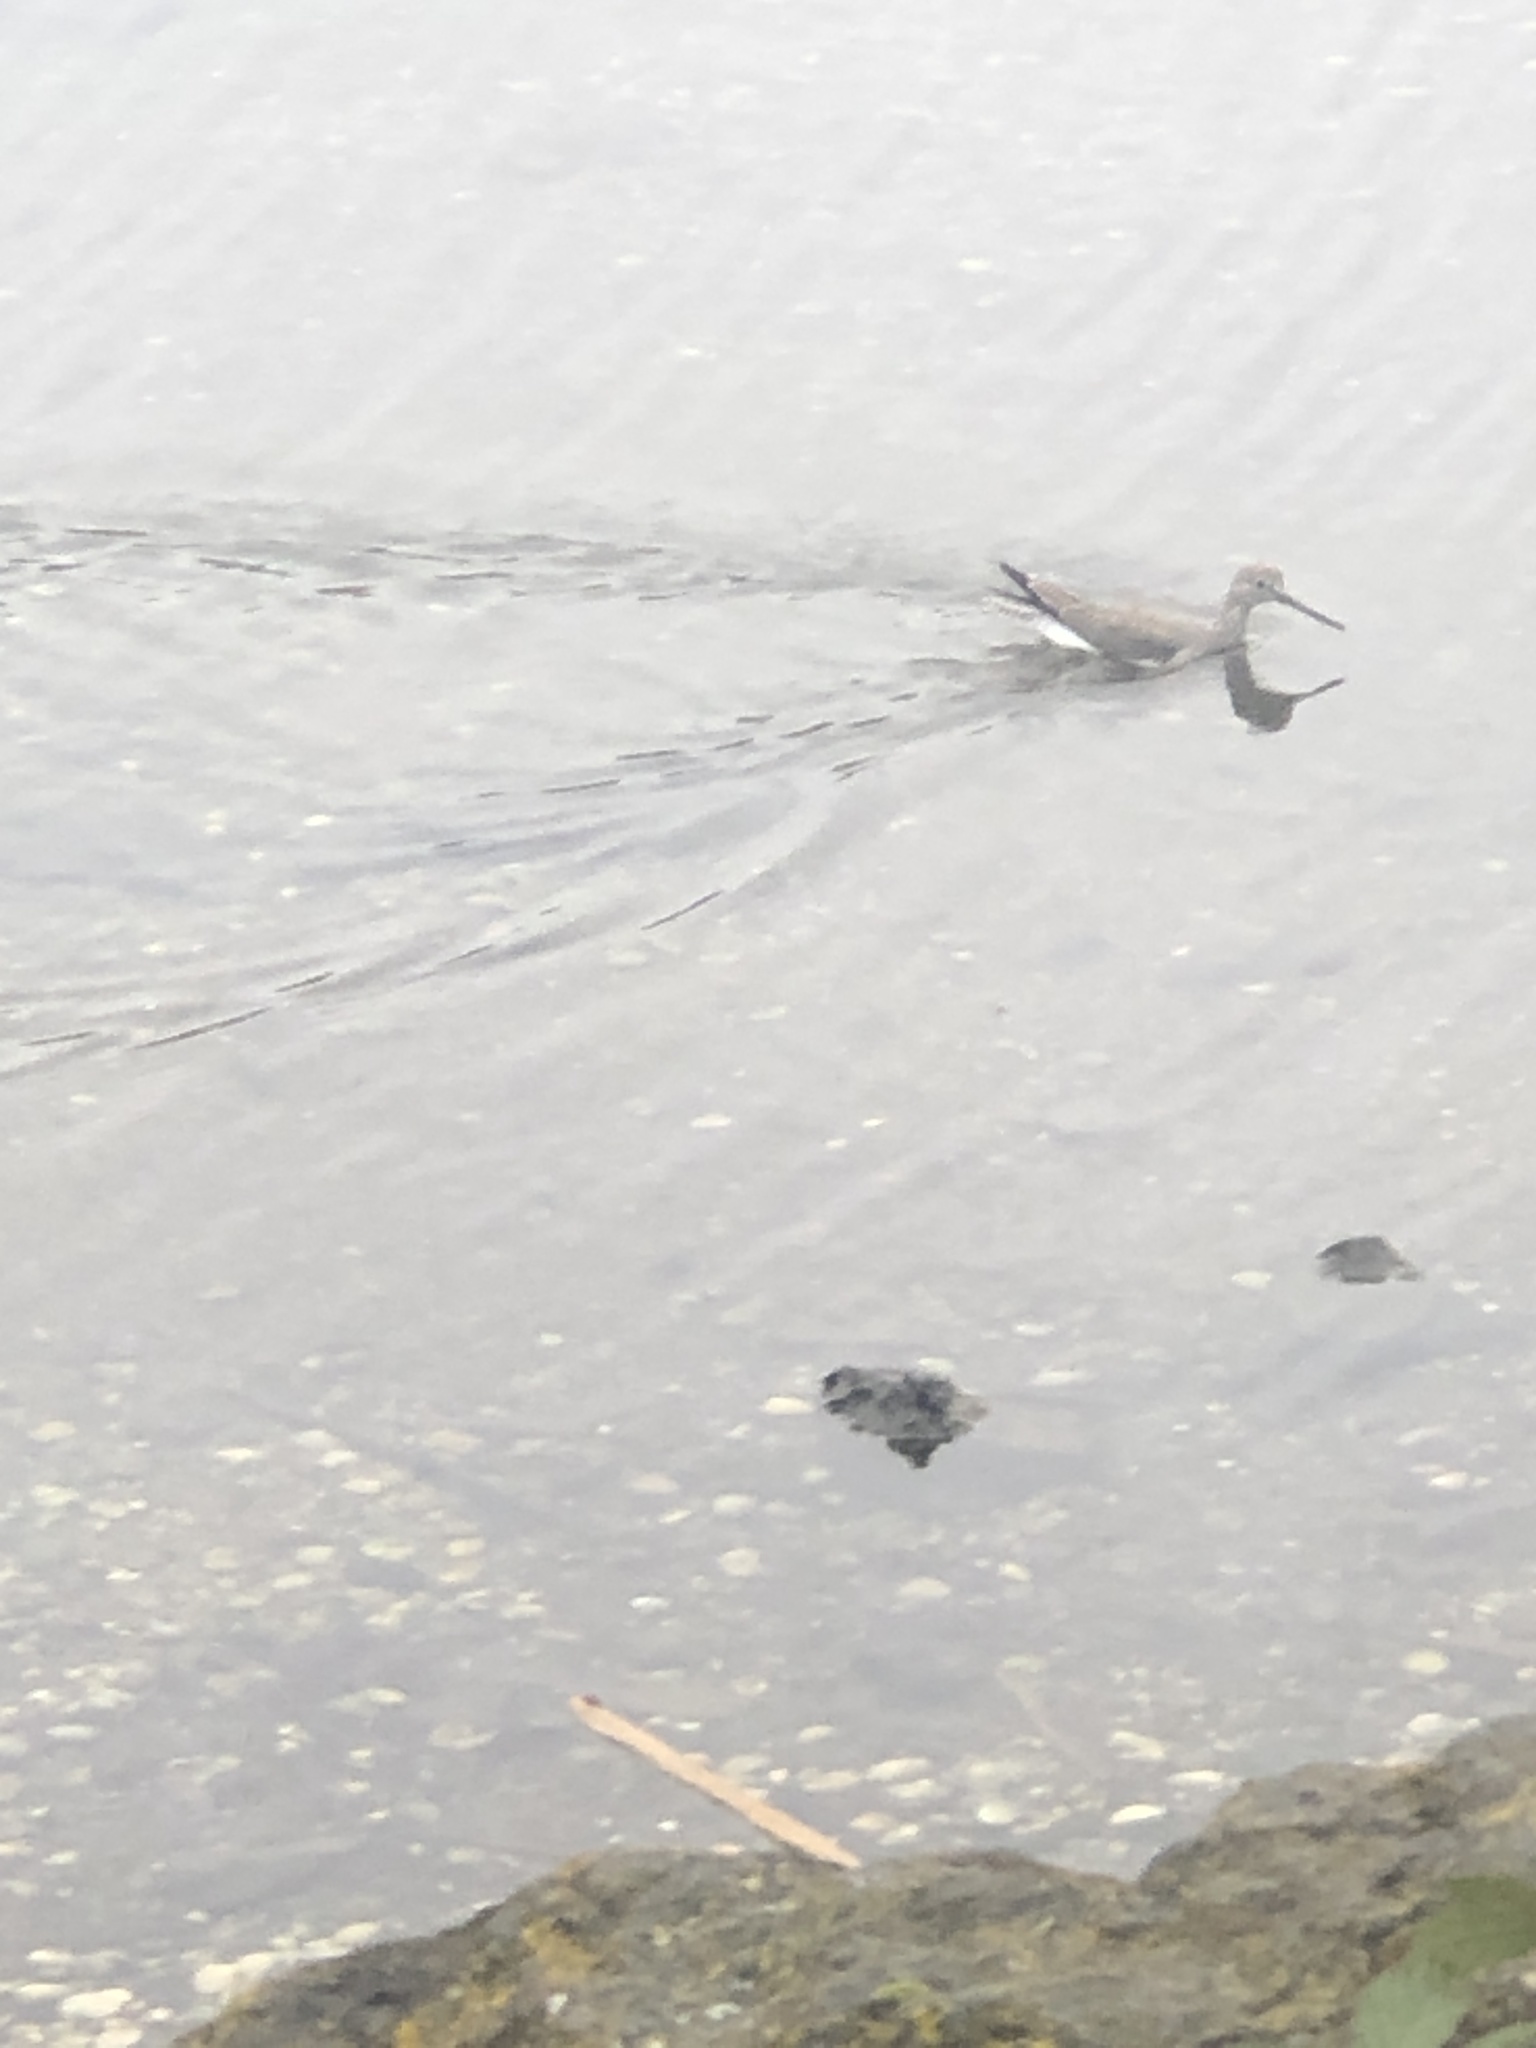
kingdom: Animalia
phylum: Chordata
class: Aves
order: Charadriiformes
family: Scolopacidae
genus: Tringa
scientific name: Tringa melanoleuca
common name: Greater yellowlegs
